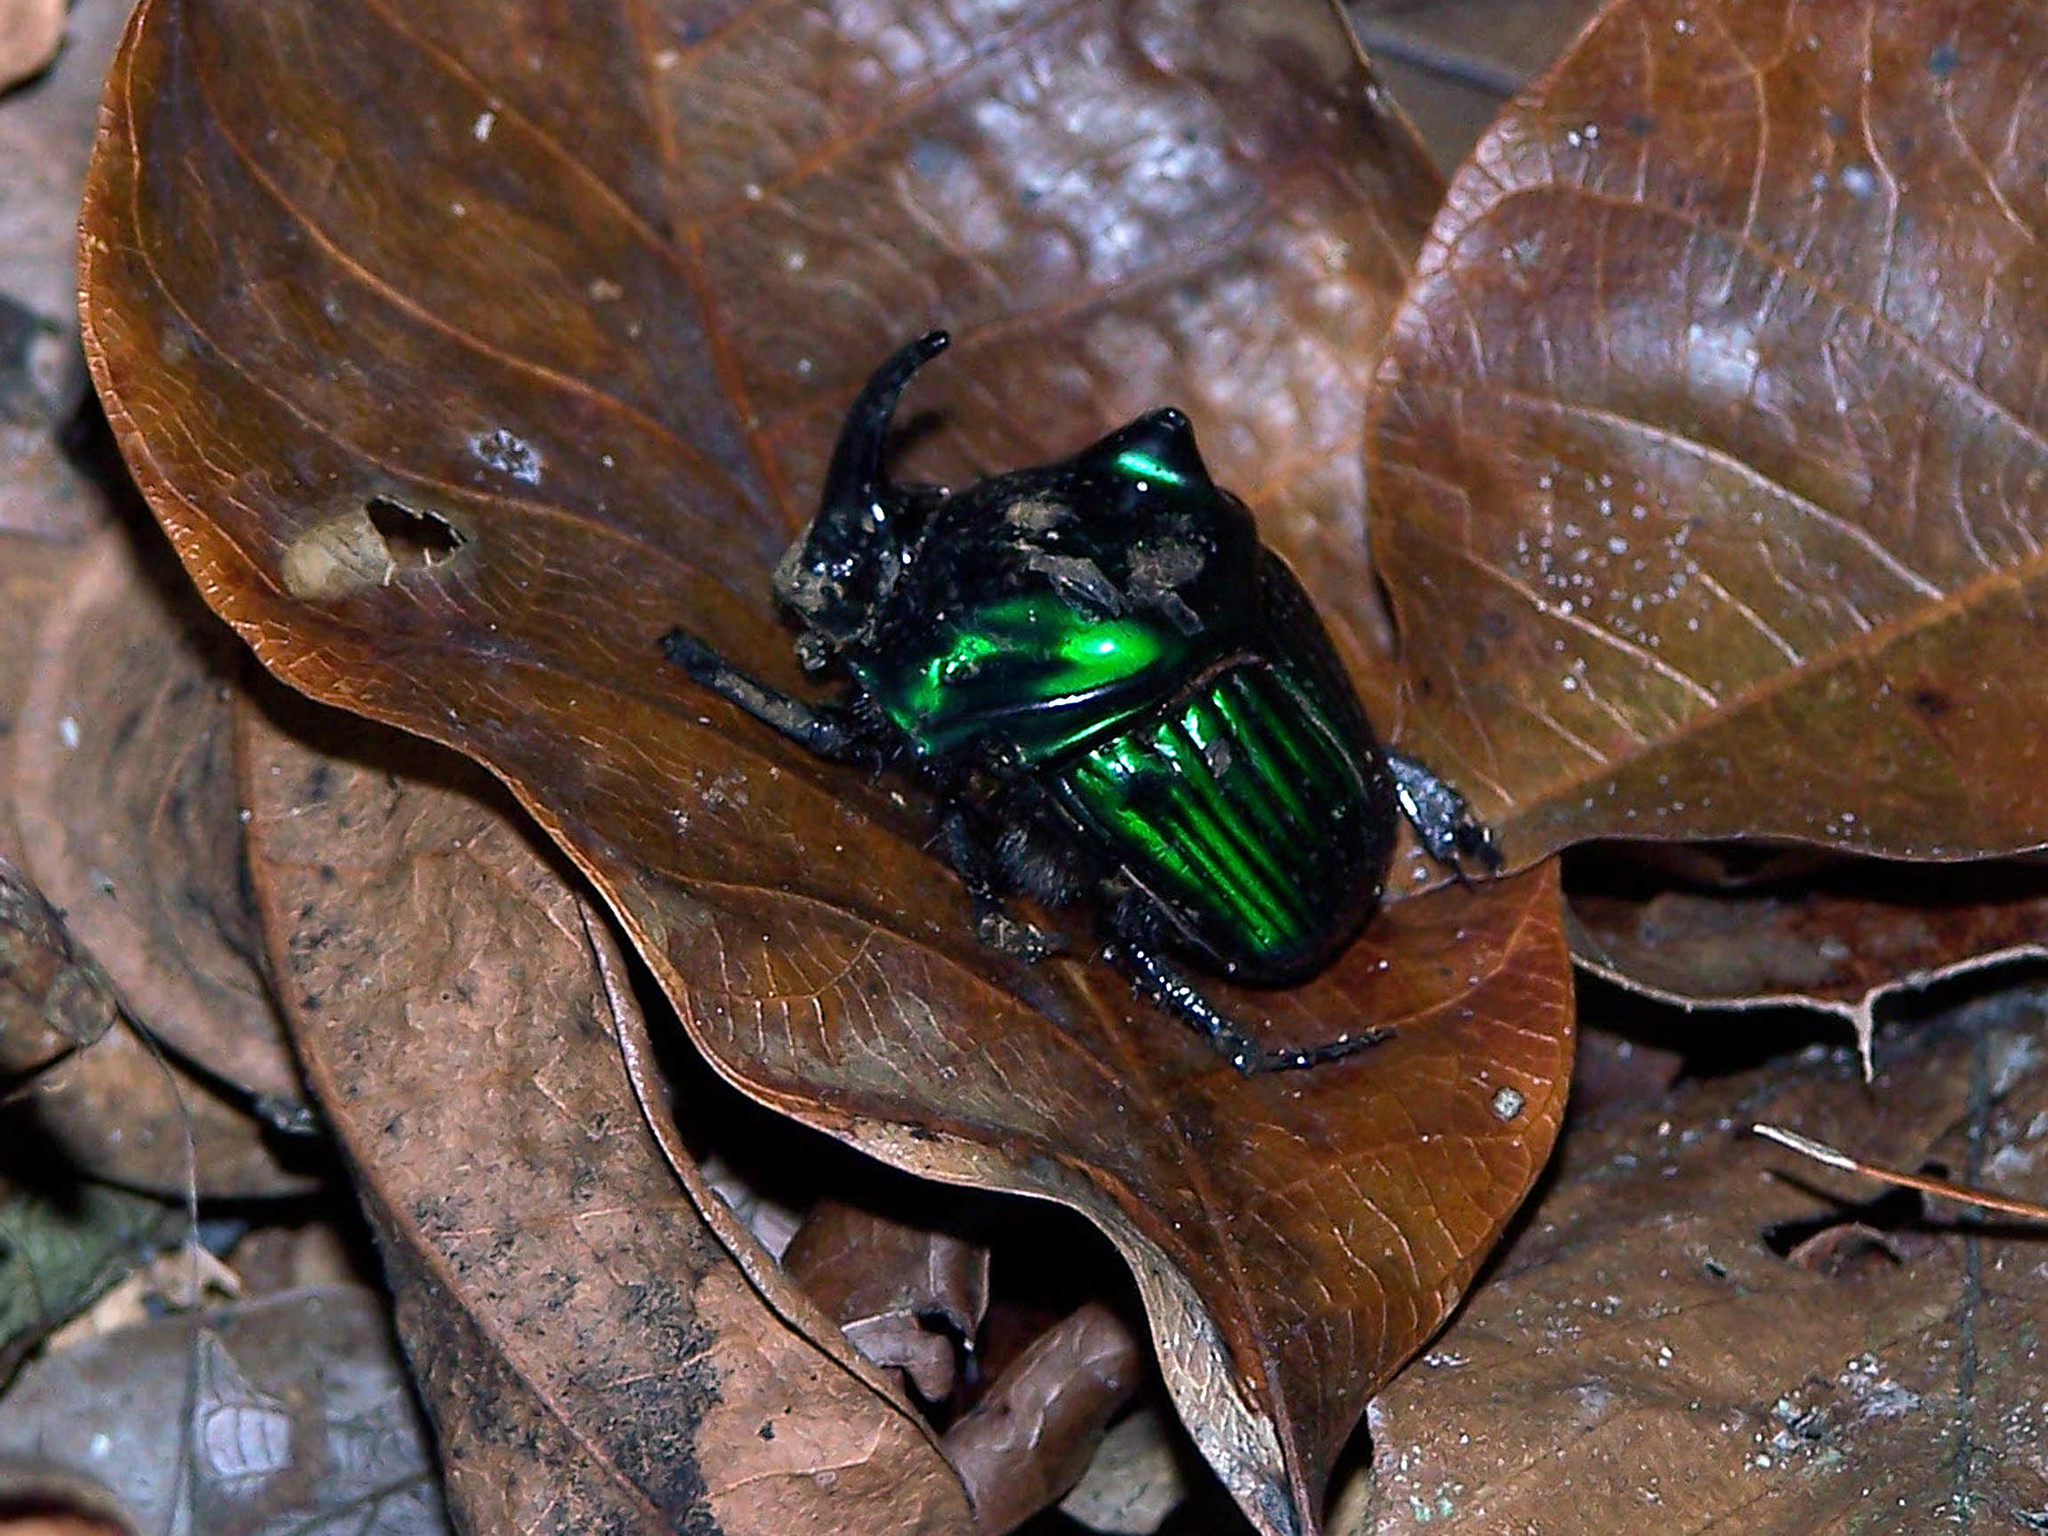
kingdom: Animalia
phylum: Arthropoda
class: Insecta
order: Coleoptera
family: Scarabaeidae
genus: Oxysternon
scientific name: Oxysternon conspicillatum
